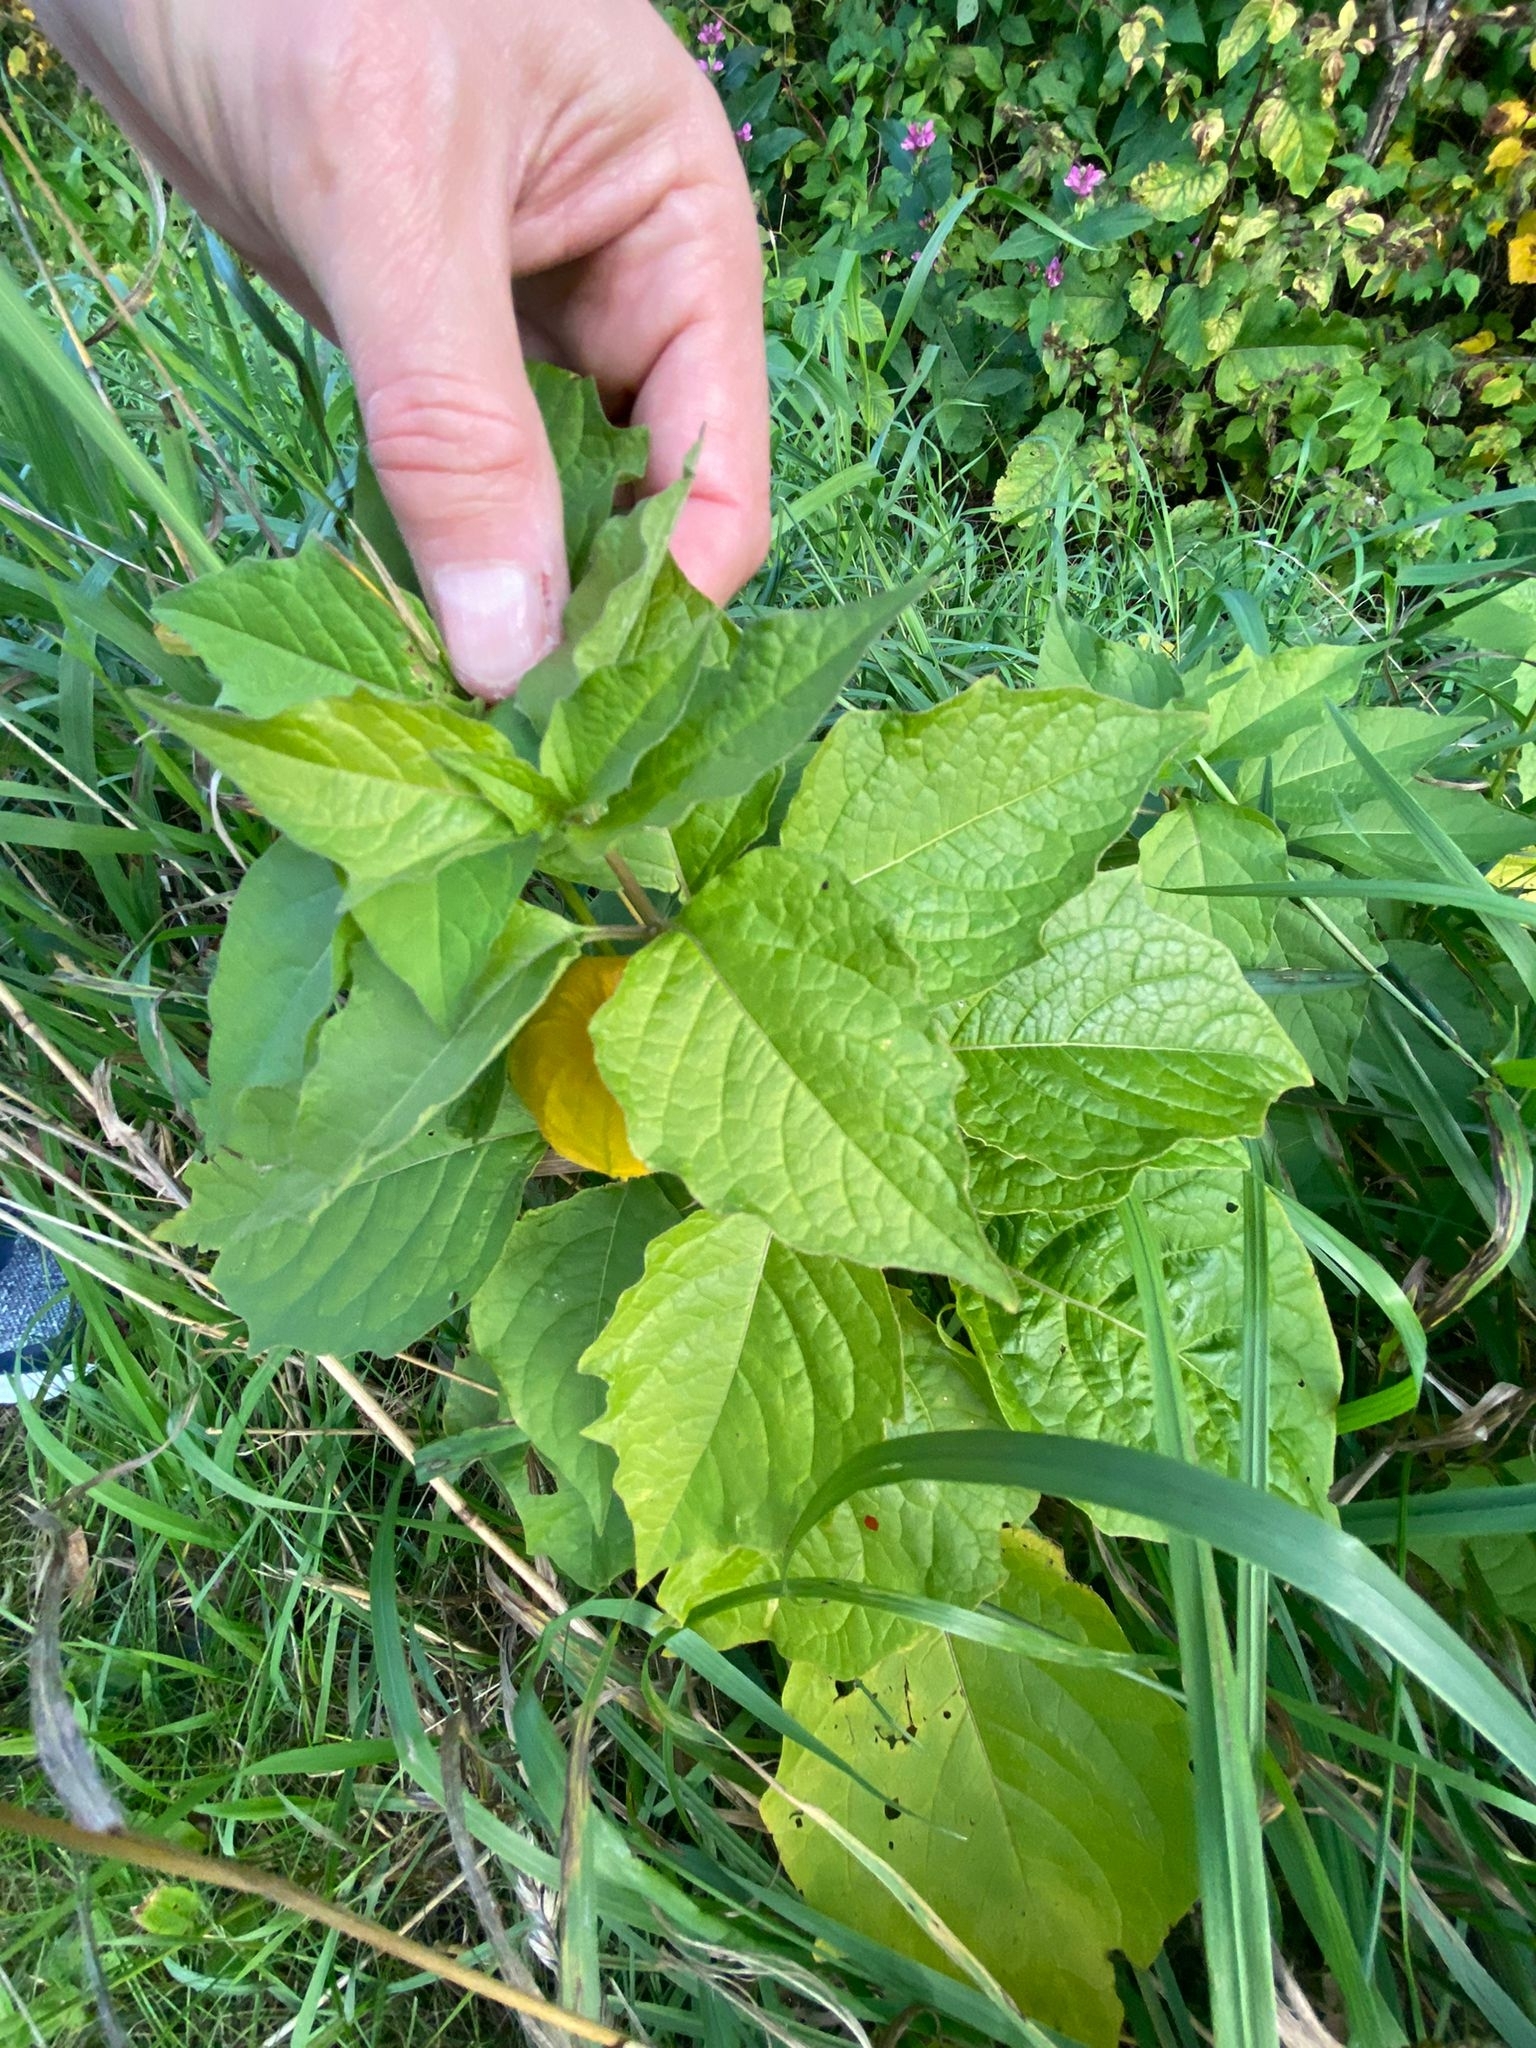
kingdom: Plantae
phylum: Tracheophyta
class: Magnoliopsida
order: Solanales
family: Solanaceae
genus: Alkekengi
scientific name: Alkekengi officinarum
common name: Japanese-lantern
